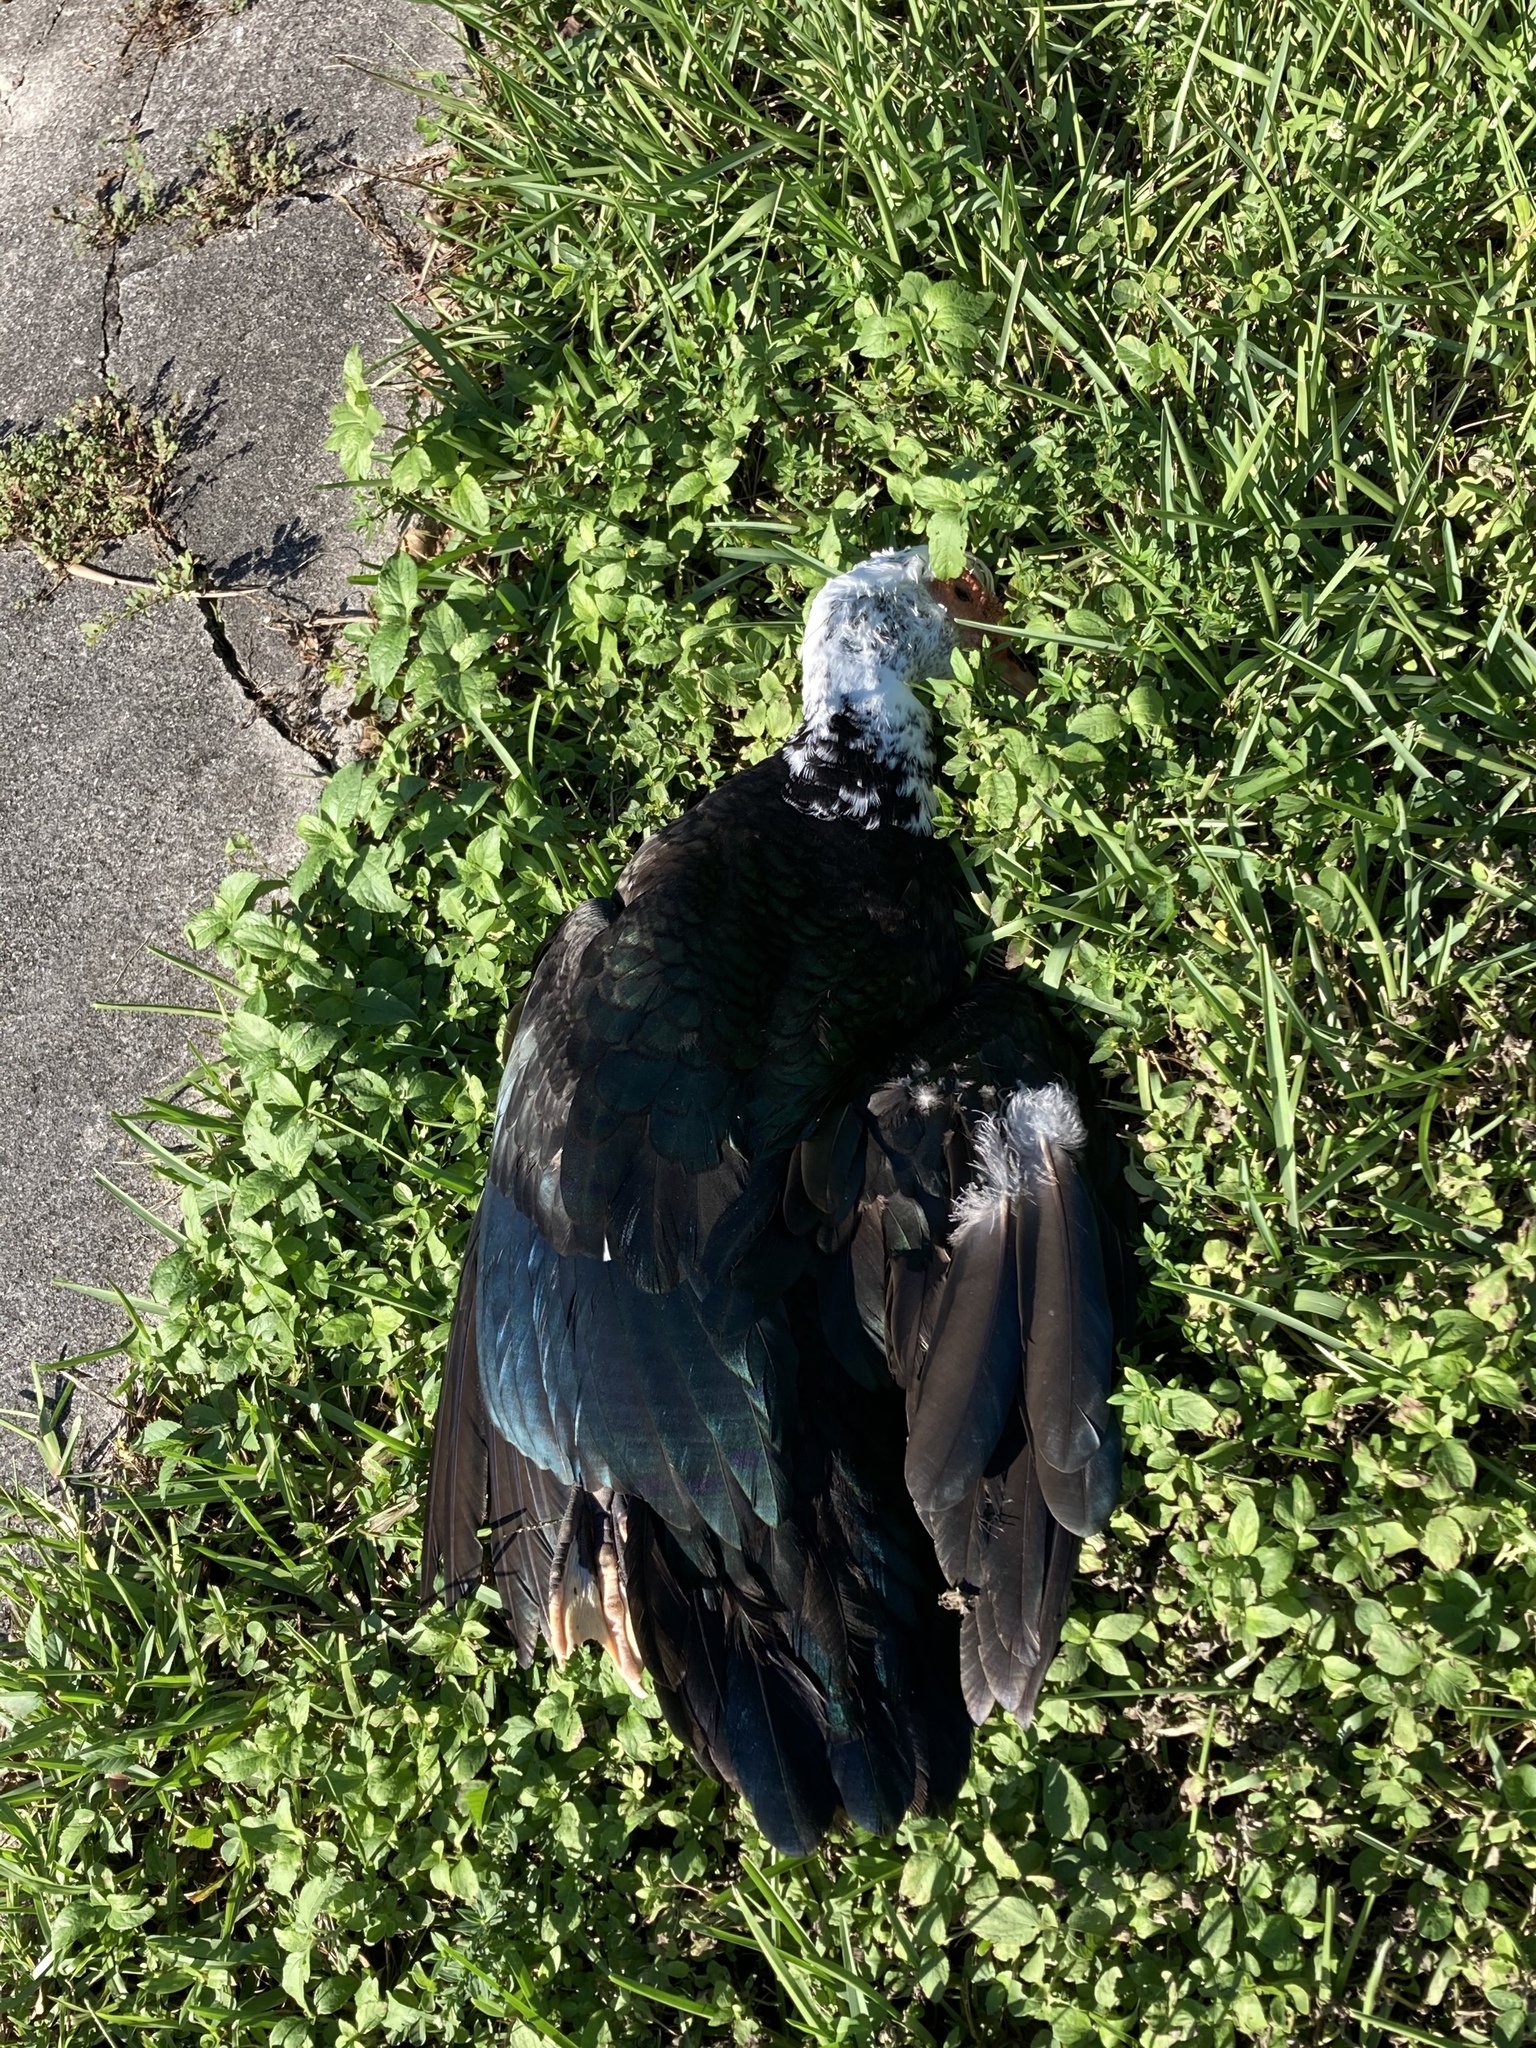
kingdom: Animalia
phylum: Chordata
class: Aves
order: Anseriformes
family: Anatidae
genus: Cairina
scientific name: Cairina moschata
